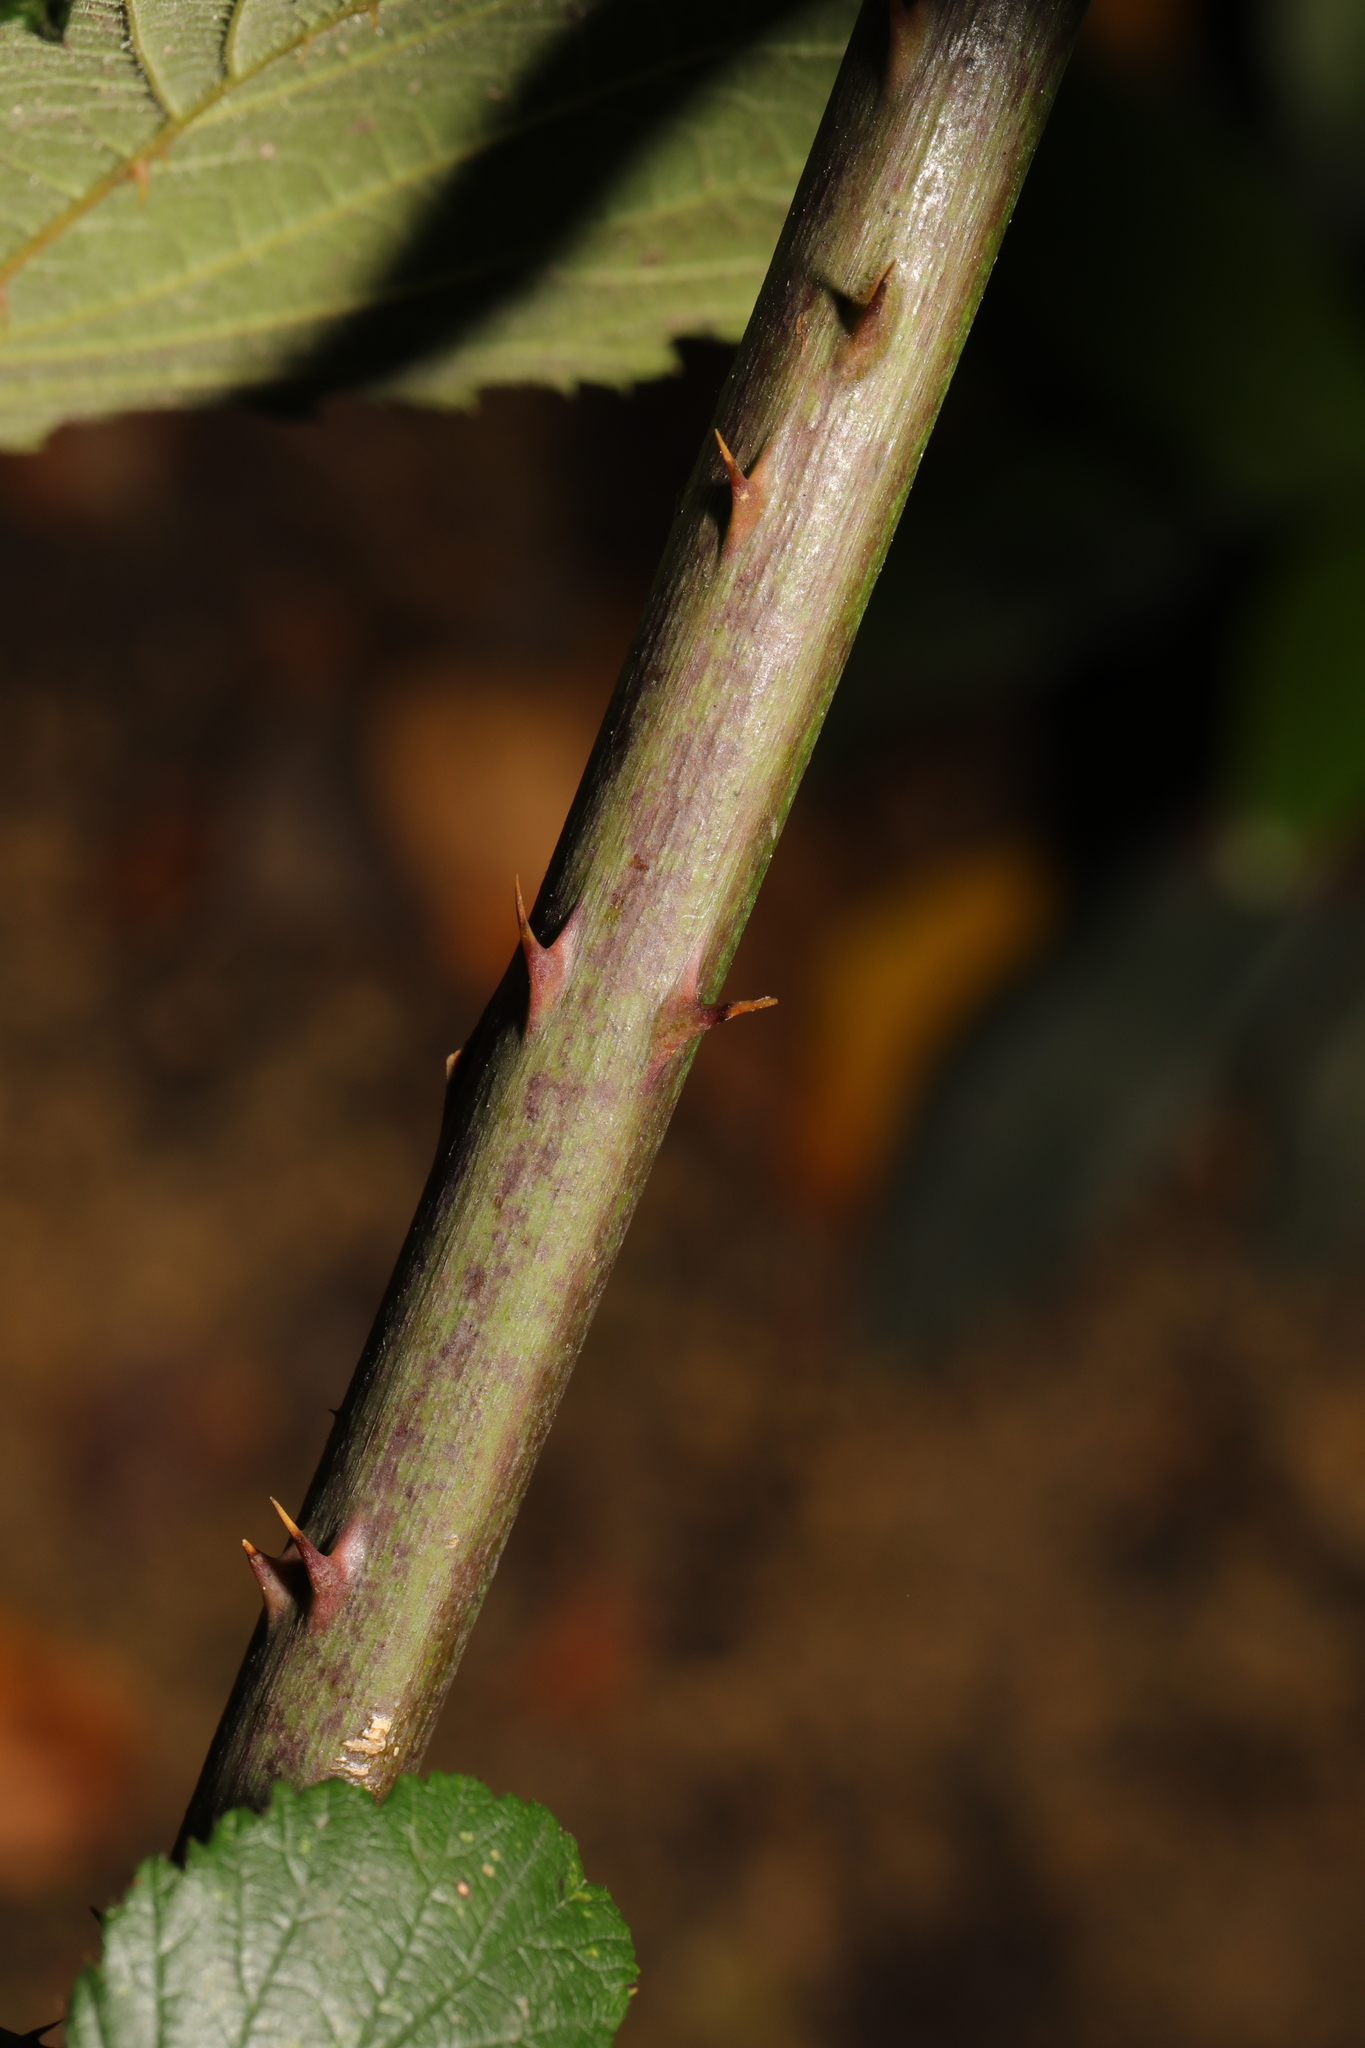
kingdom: Plantae
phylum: Tracheophyta
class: Magnoliopsida
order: Rosales
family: Rosaceae
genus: Rubus
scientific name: Rubus cissburiensis
